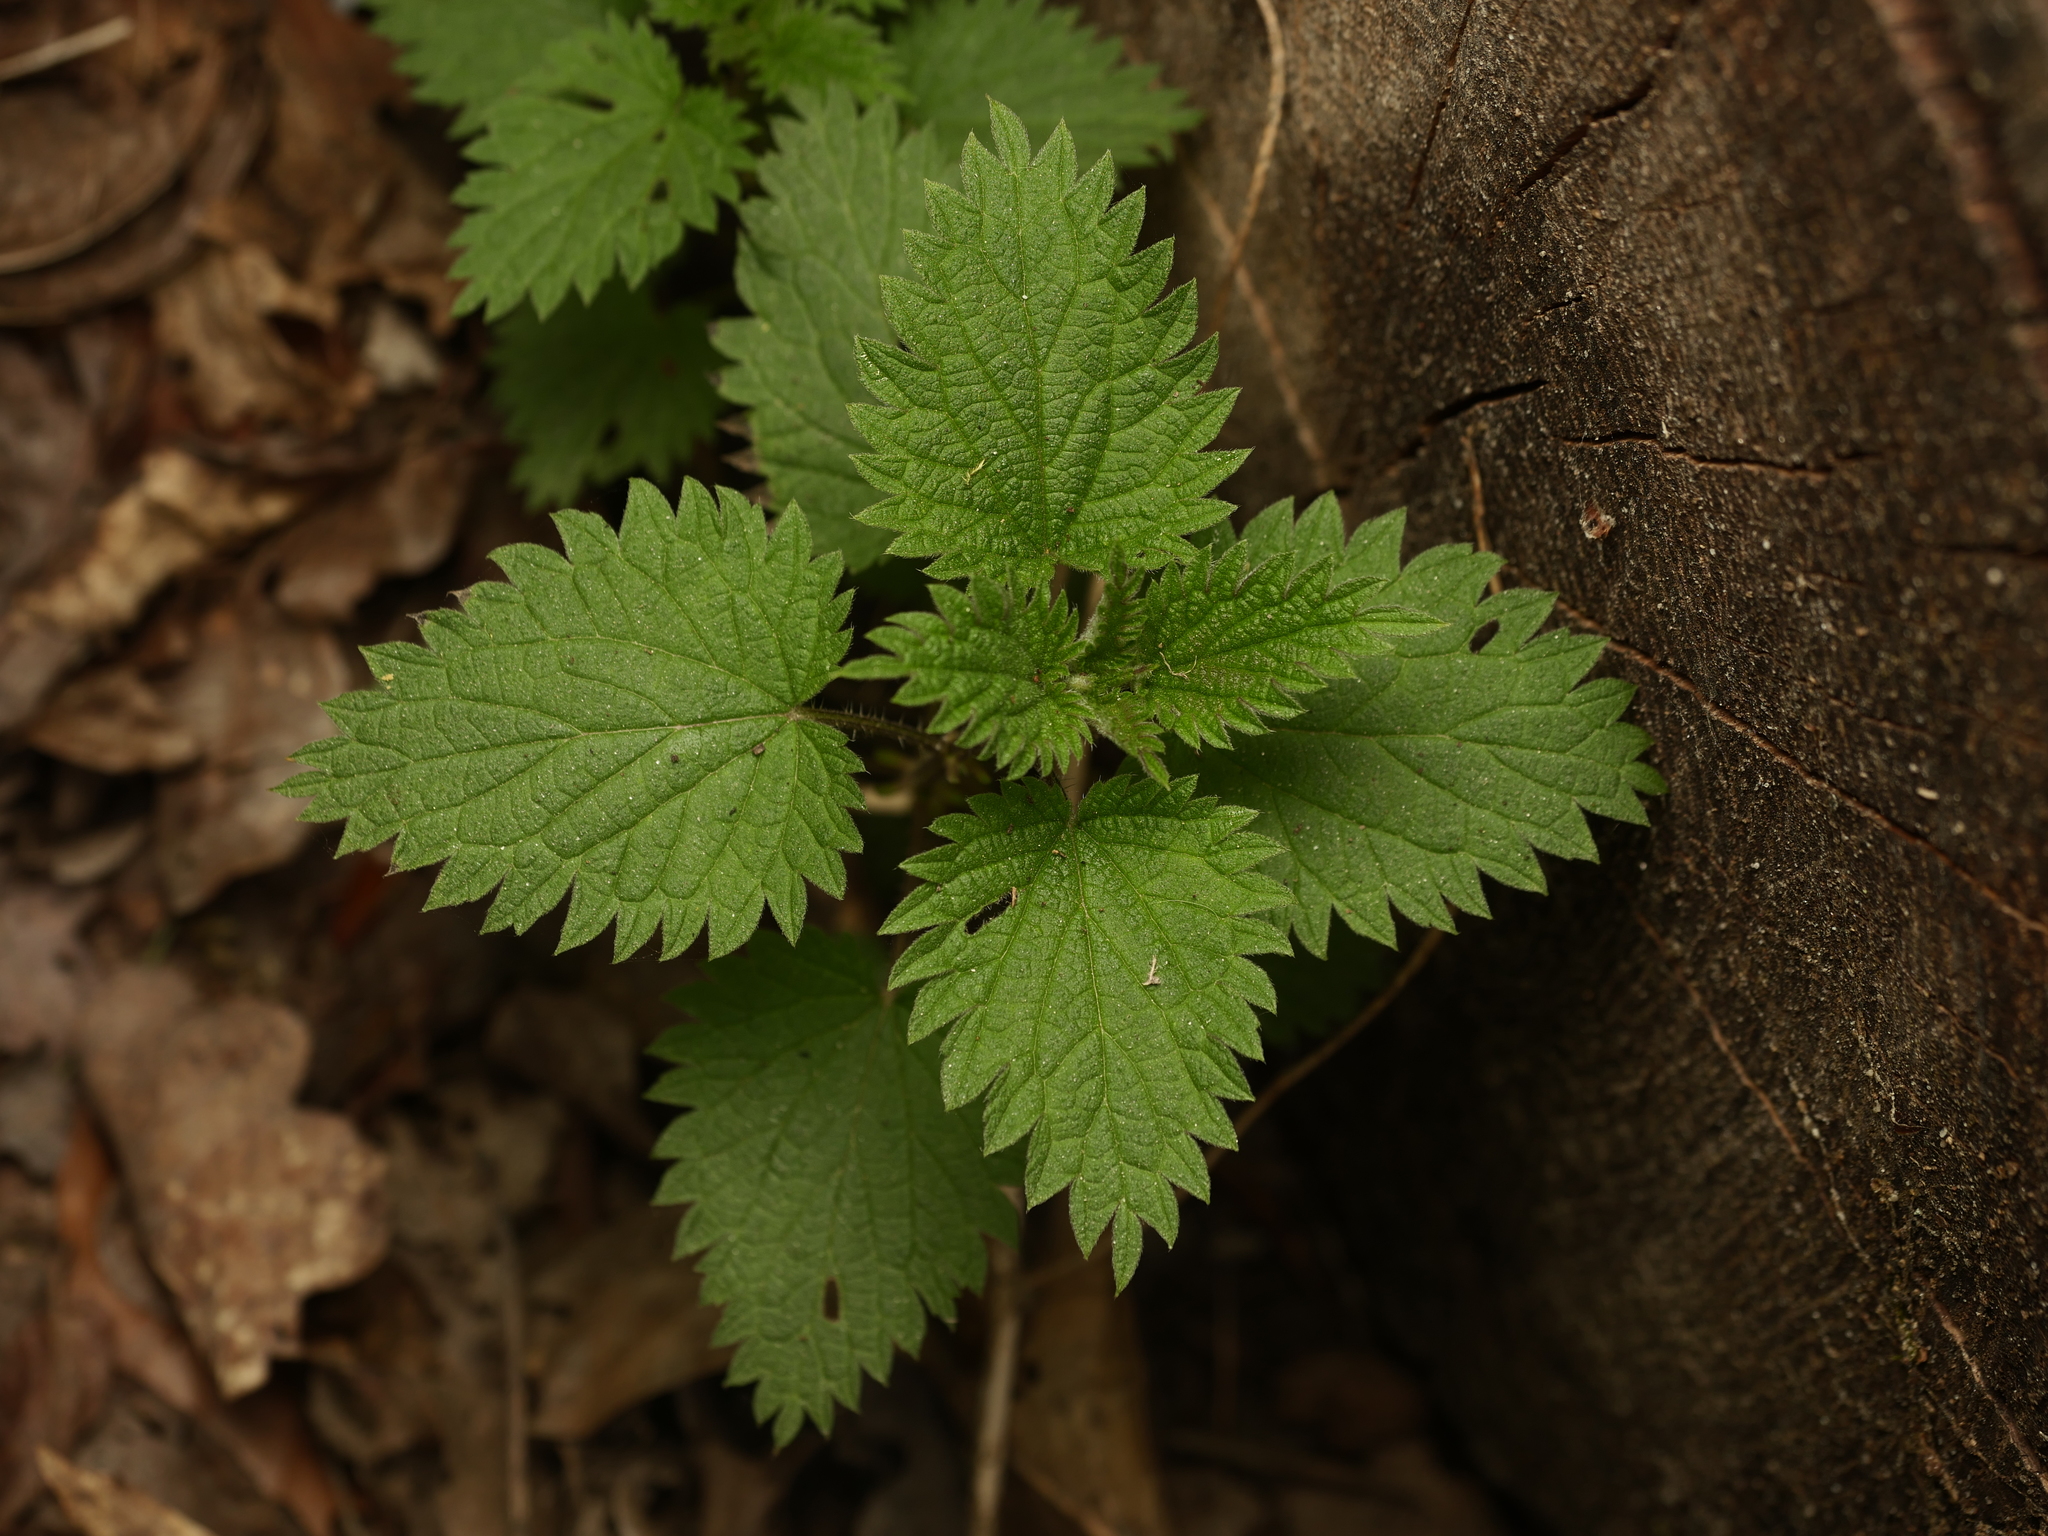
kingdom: Plantae
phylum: Tracheophyta
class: Magnoliopsida
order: Rosales
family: Urticaceae
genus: Urtica
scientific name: Urtica dioica
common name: Common nettle
